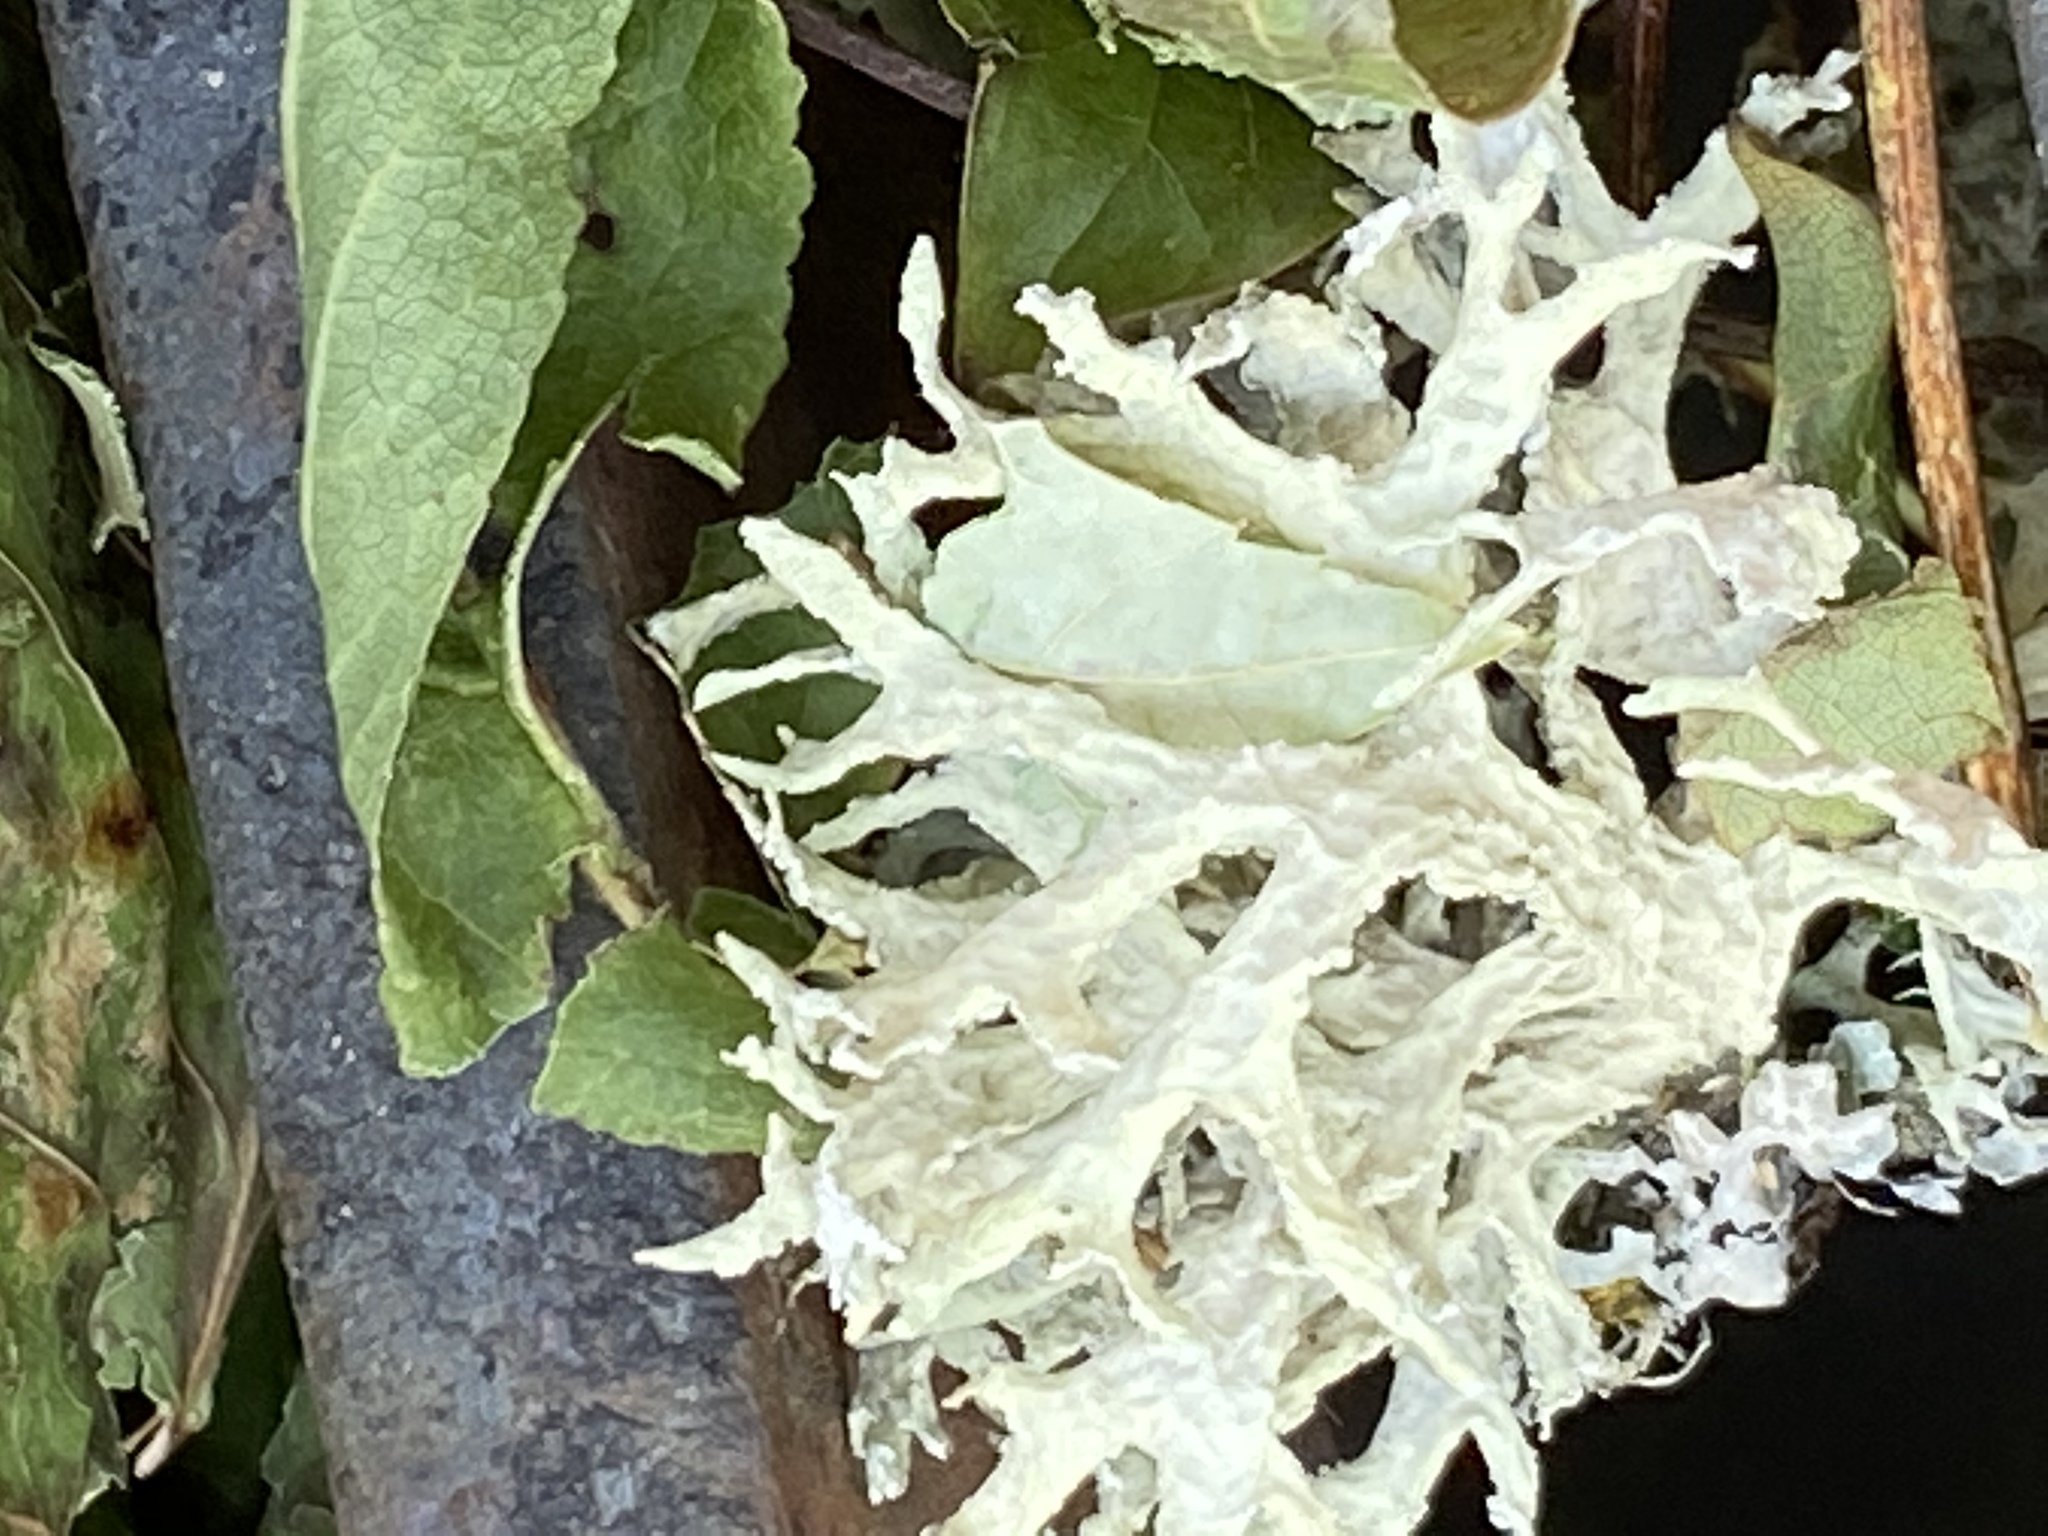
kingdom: Fungi
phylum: Ascomycota
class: Lecanoromycetes
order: Lecanorales
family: Parmeliaceae
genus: Evernia
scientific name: Evernia prunastri
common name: Oak moss
